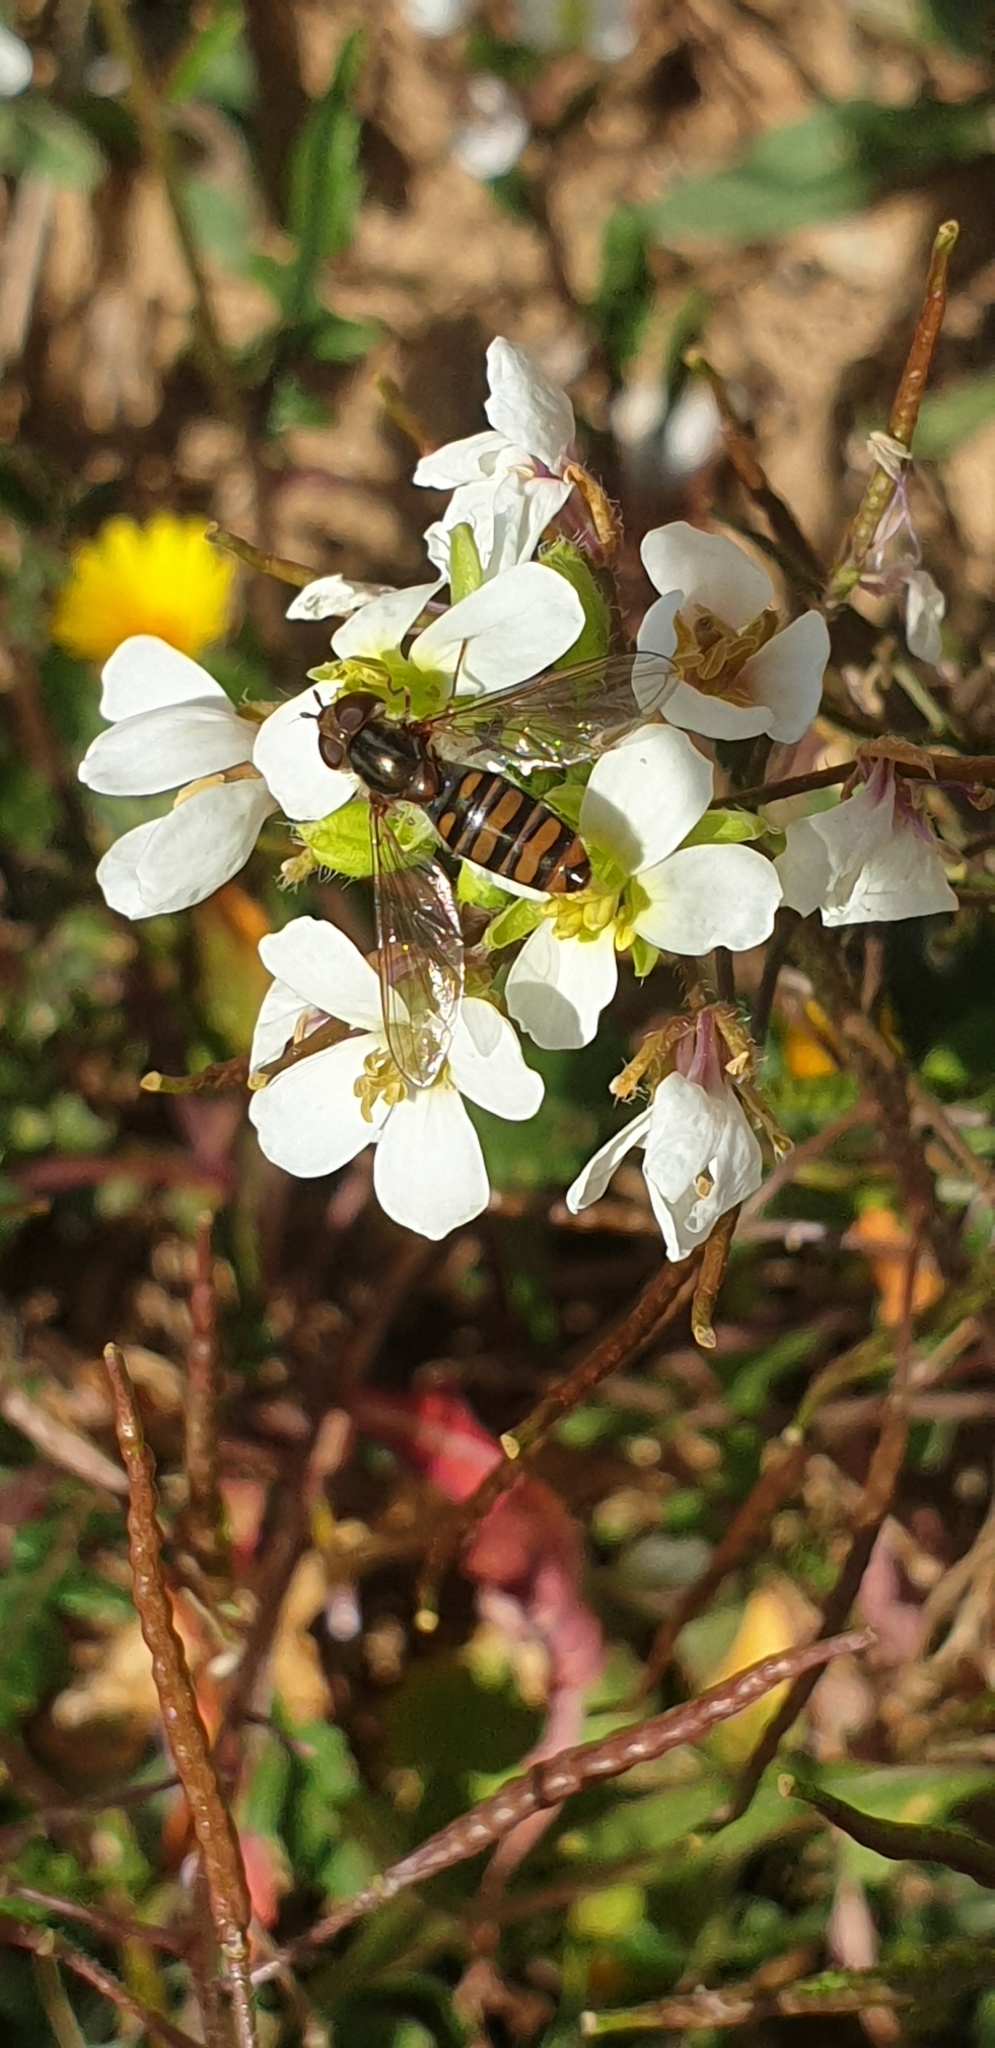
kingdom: Animalia
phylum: Arthropoda
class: Insecta
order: Diptera
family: Syrphidae
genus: Episyrphus
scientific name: Episyrphus balteatus
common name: Marmalade hoverfly
